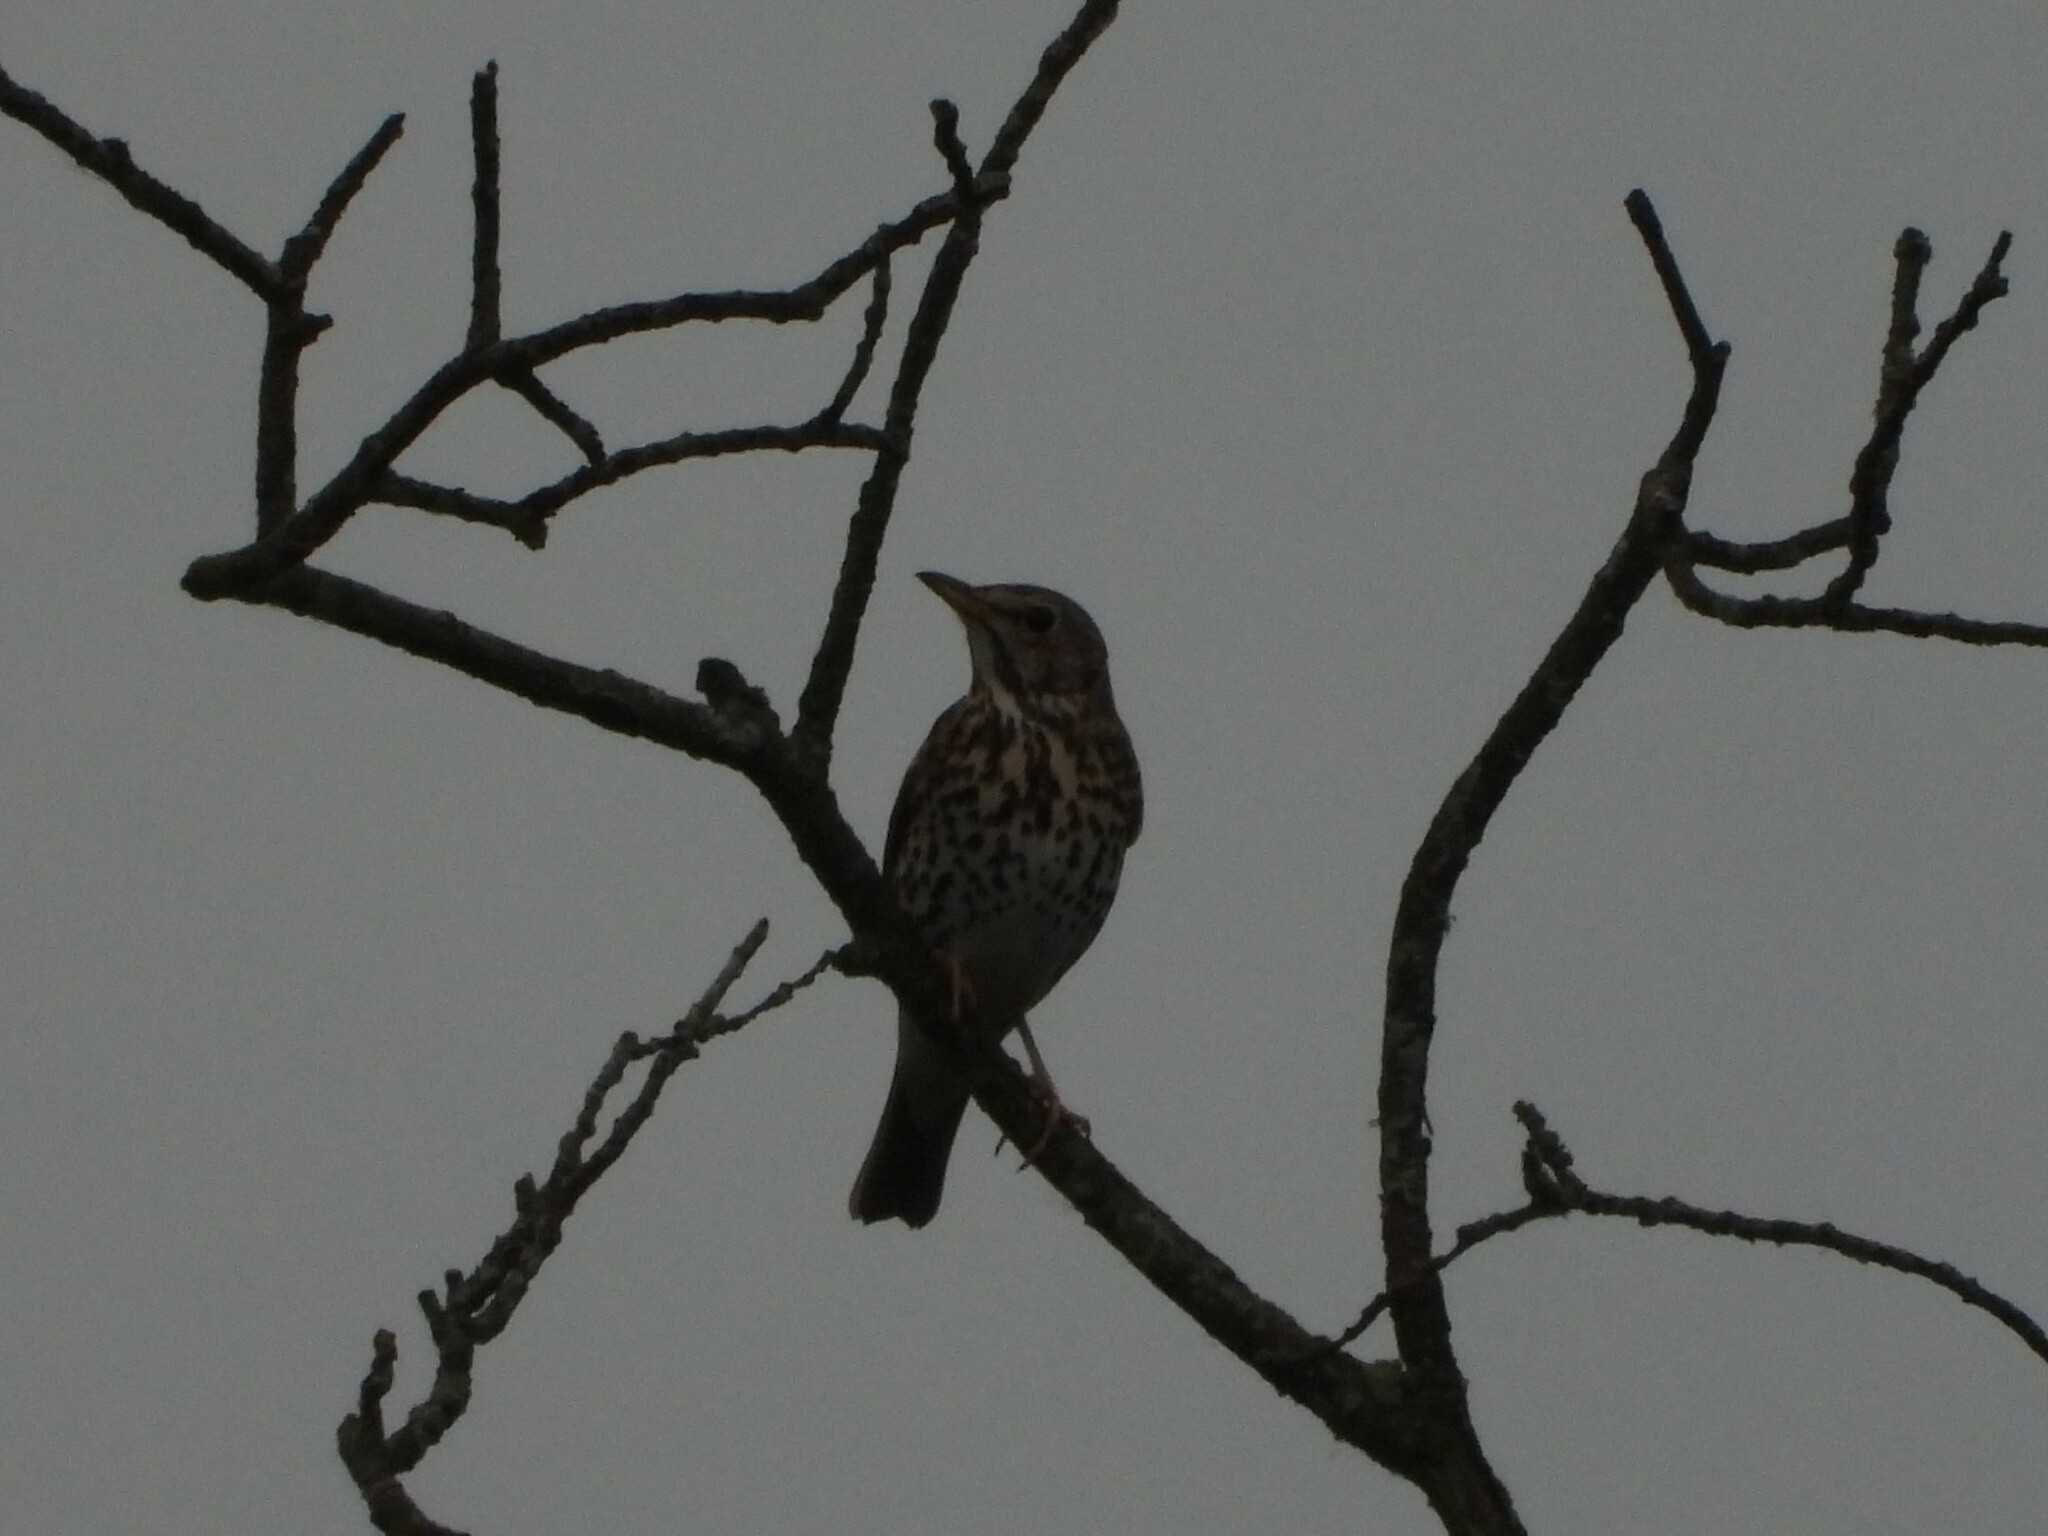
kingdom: Animalia
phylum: Chordata
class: Aves
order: Passeriformes
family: Turdidae
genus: Turdus
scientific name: Turdus philomelos
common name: Song thrush
